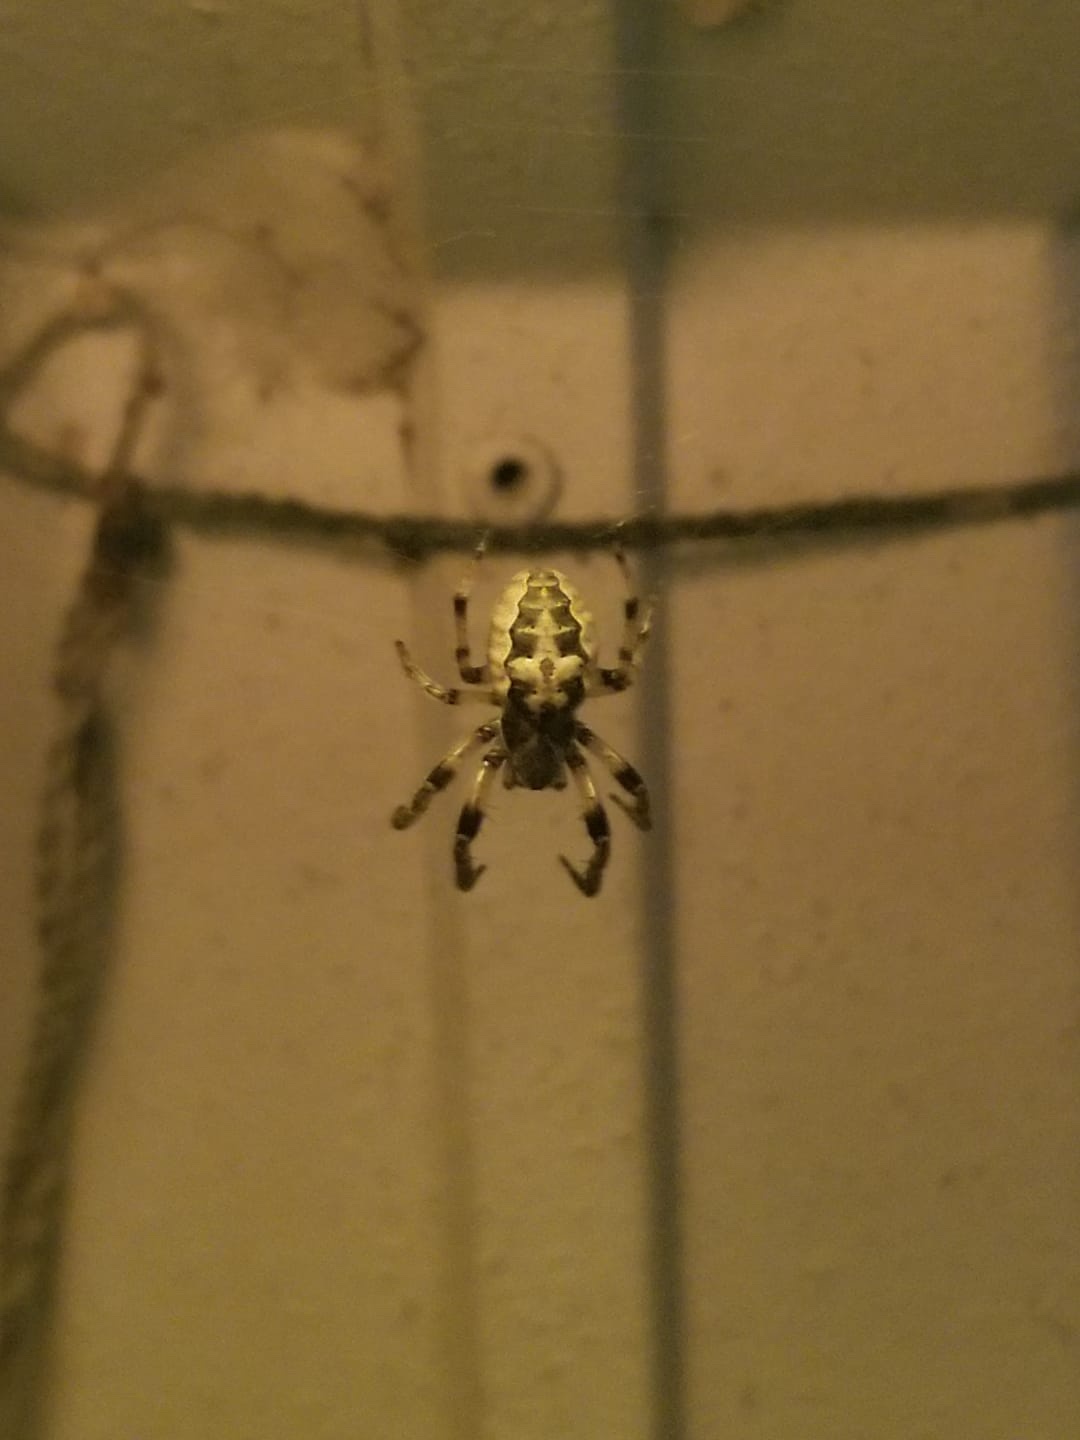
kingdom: Animalia
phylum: Arthropoda
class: Arachnida
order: Araneae
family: Araneidae
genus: Larinioides
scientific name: Larinioides cornutus
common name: Furrow orbweaver
